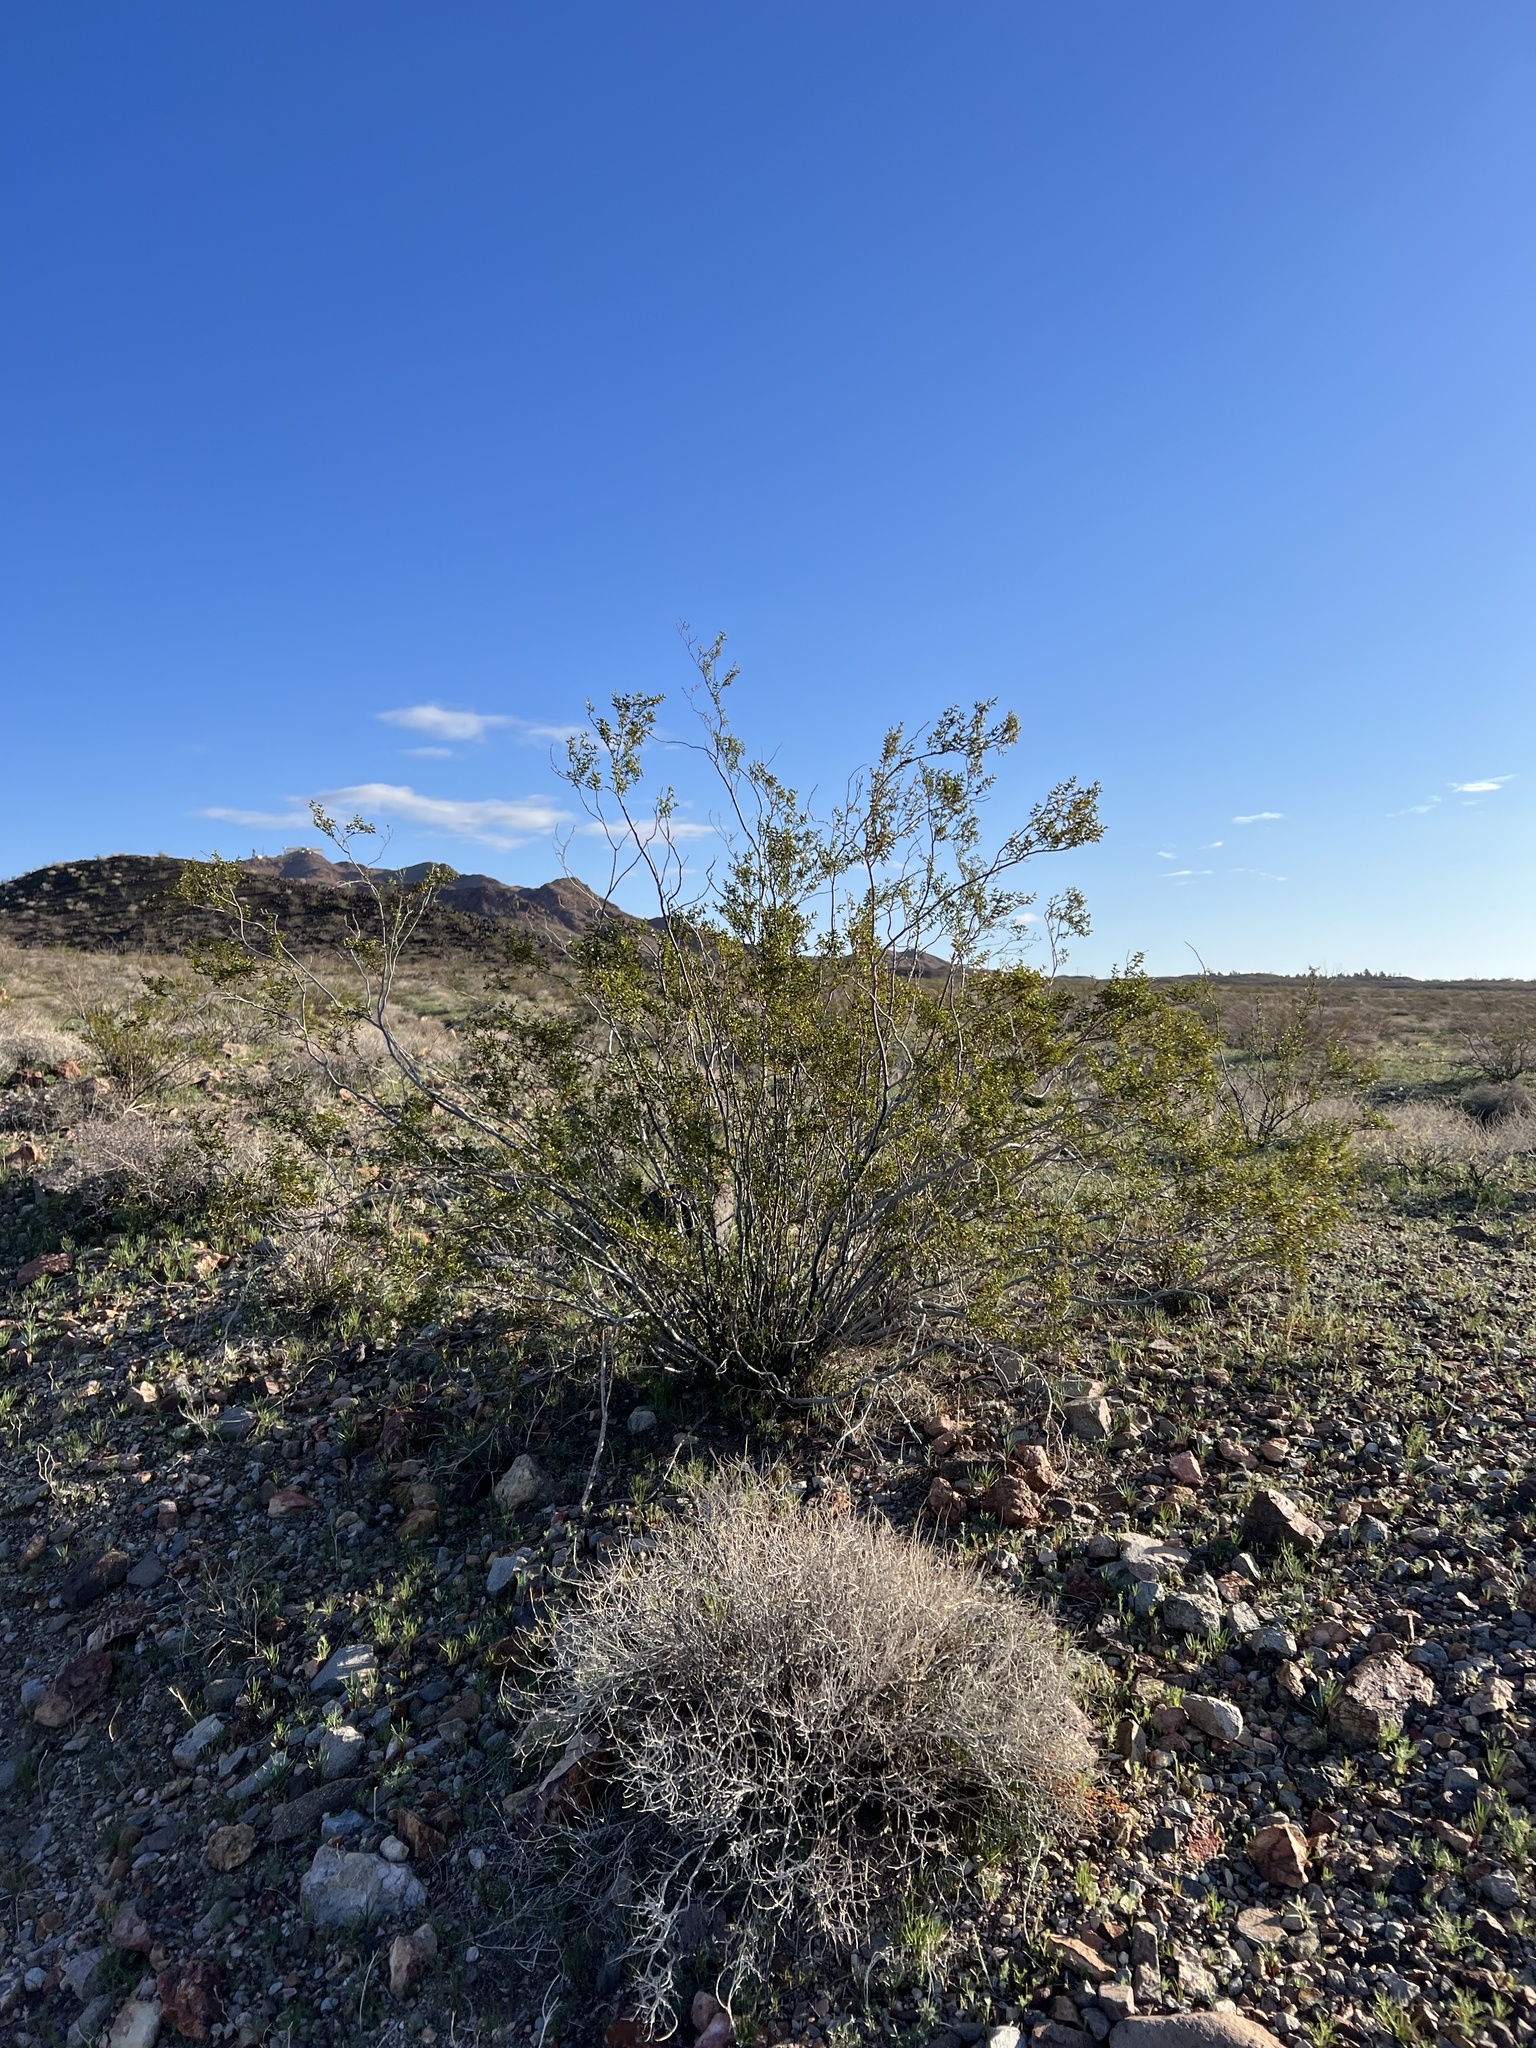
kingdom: Plantae
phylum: Tracheophyta
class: Magnoliopsida
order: Zygophyllales
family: Zygophyllaceae
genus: Larrea
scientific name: Larrea tridentata
